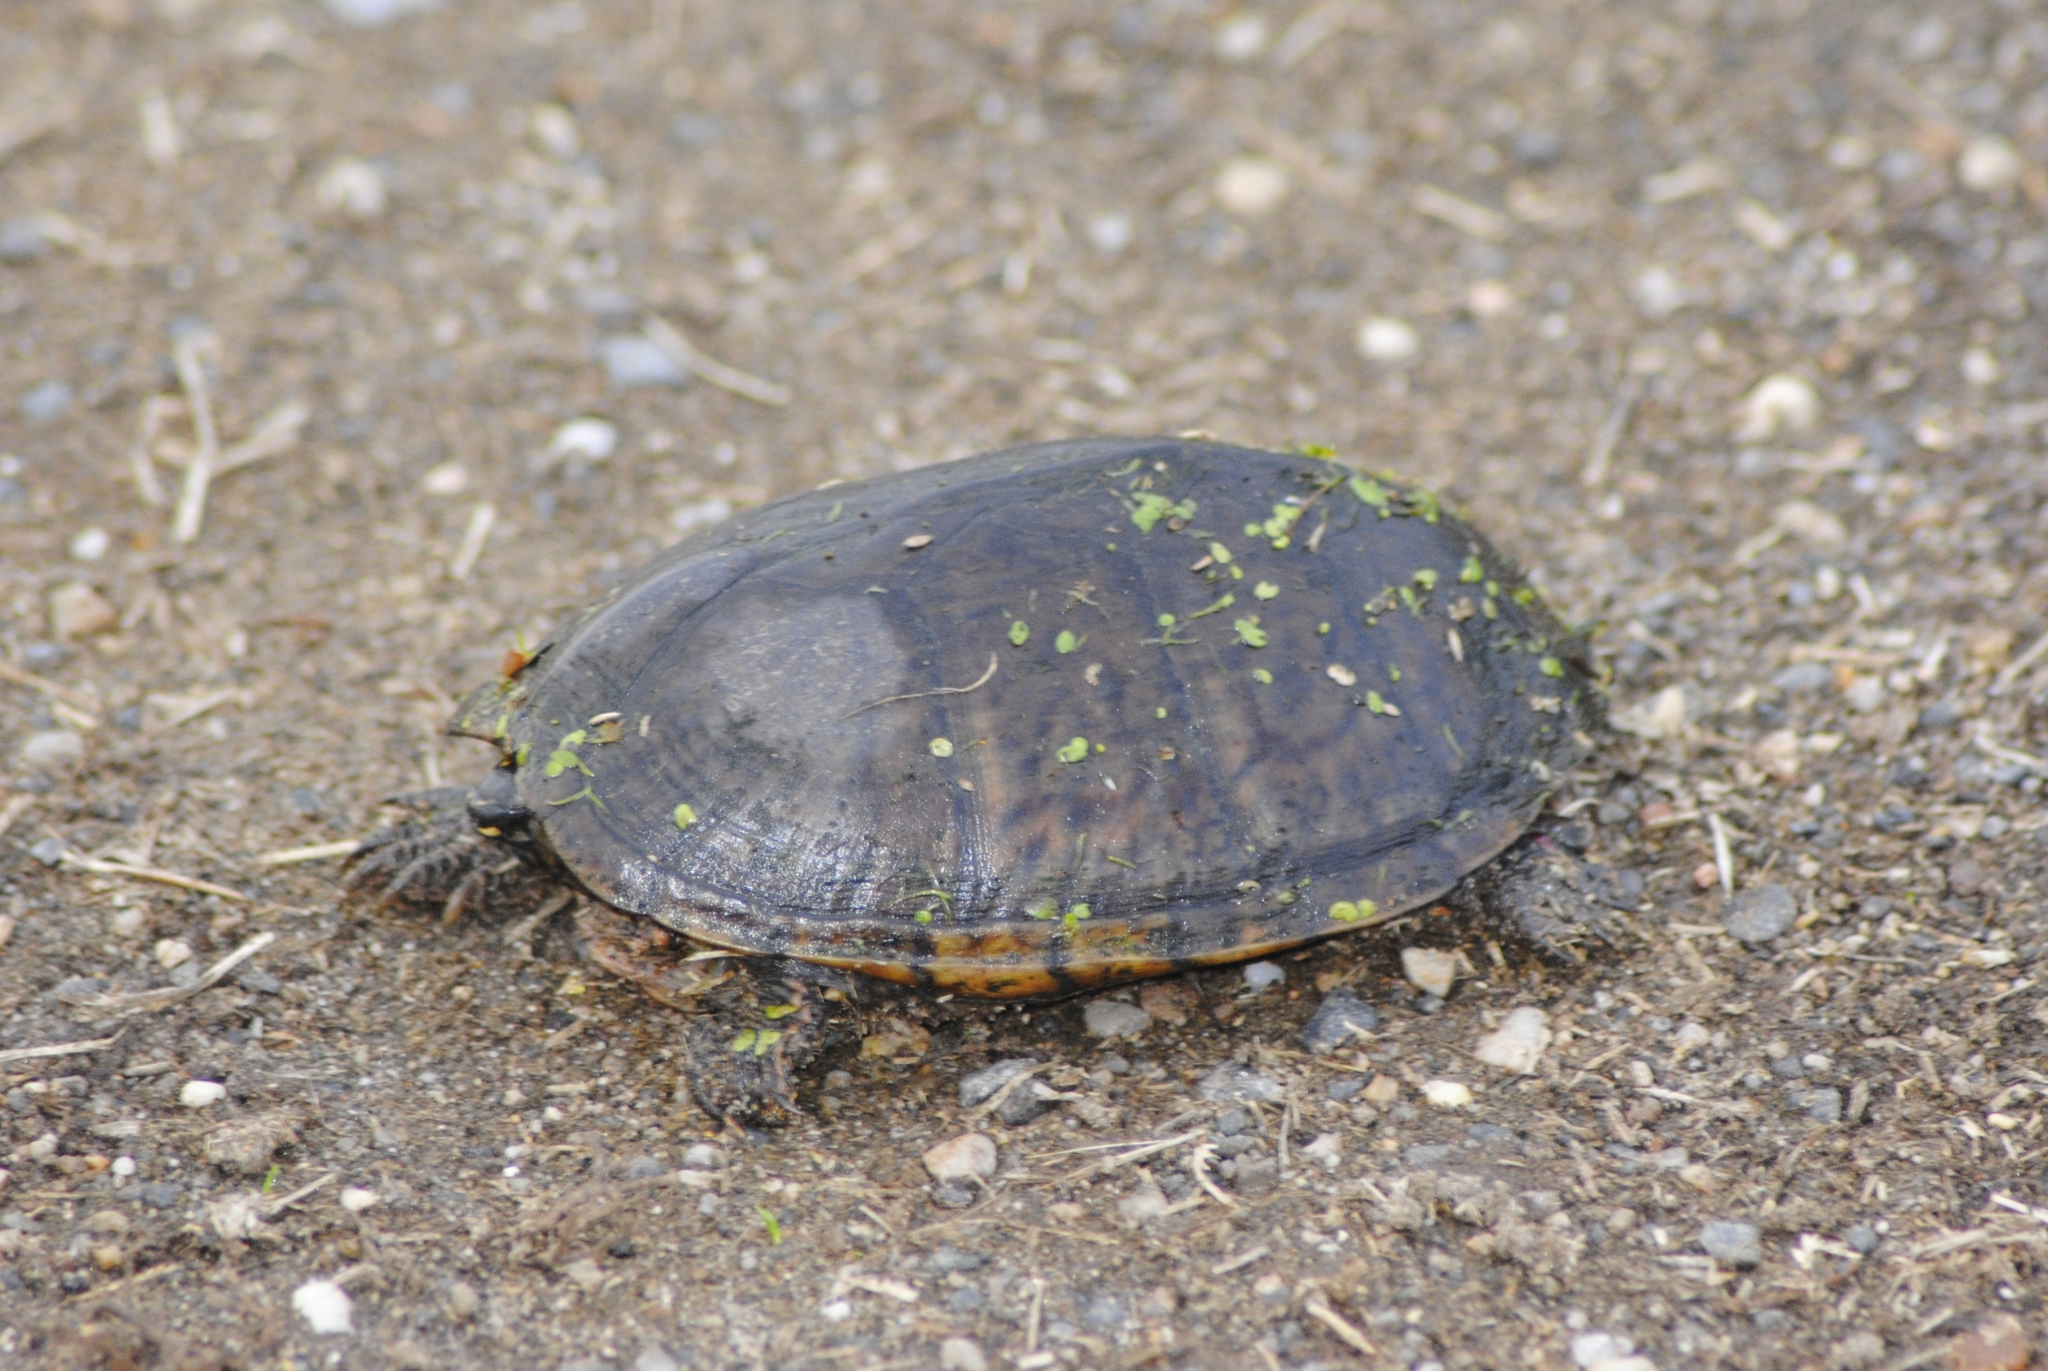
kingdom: Animalia
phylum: Chordata
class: Testudines
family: Kinosternidae
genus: Sternotherus
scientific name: Sternotherus odoratus
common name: Common musk turtle
